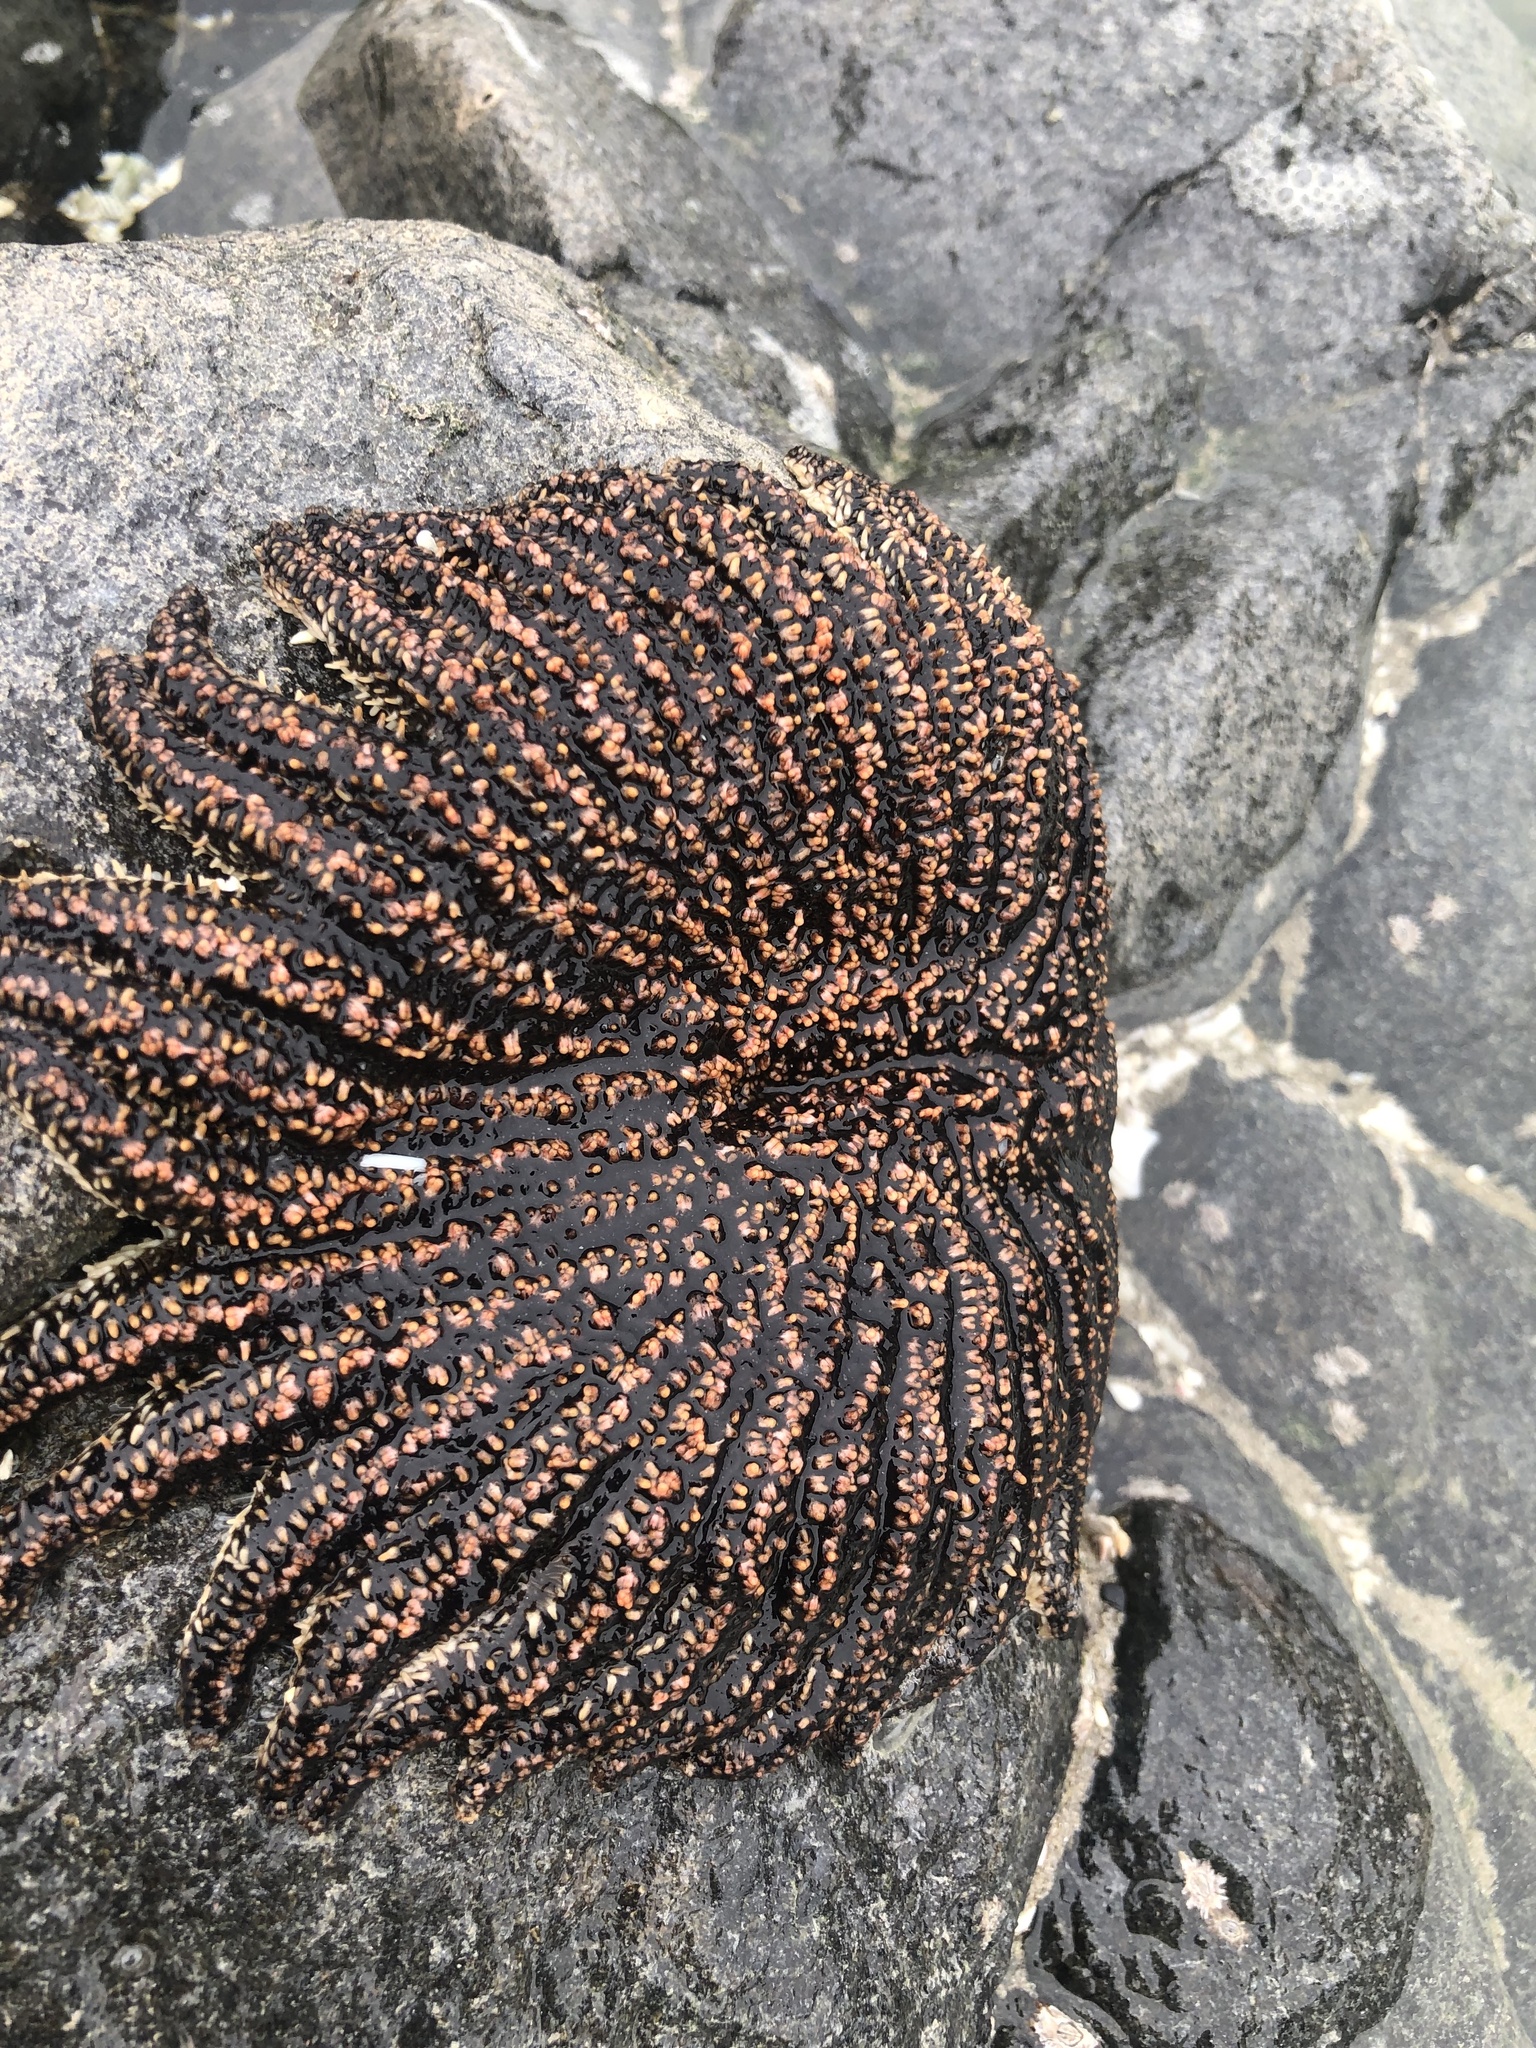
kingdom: Animalia
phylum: Echinodermata
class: Asteroidea
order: Forcipulatida
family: Heliasteridae
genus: Heliaster
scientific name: Heliaster helianthus
